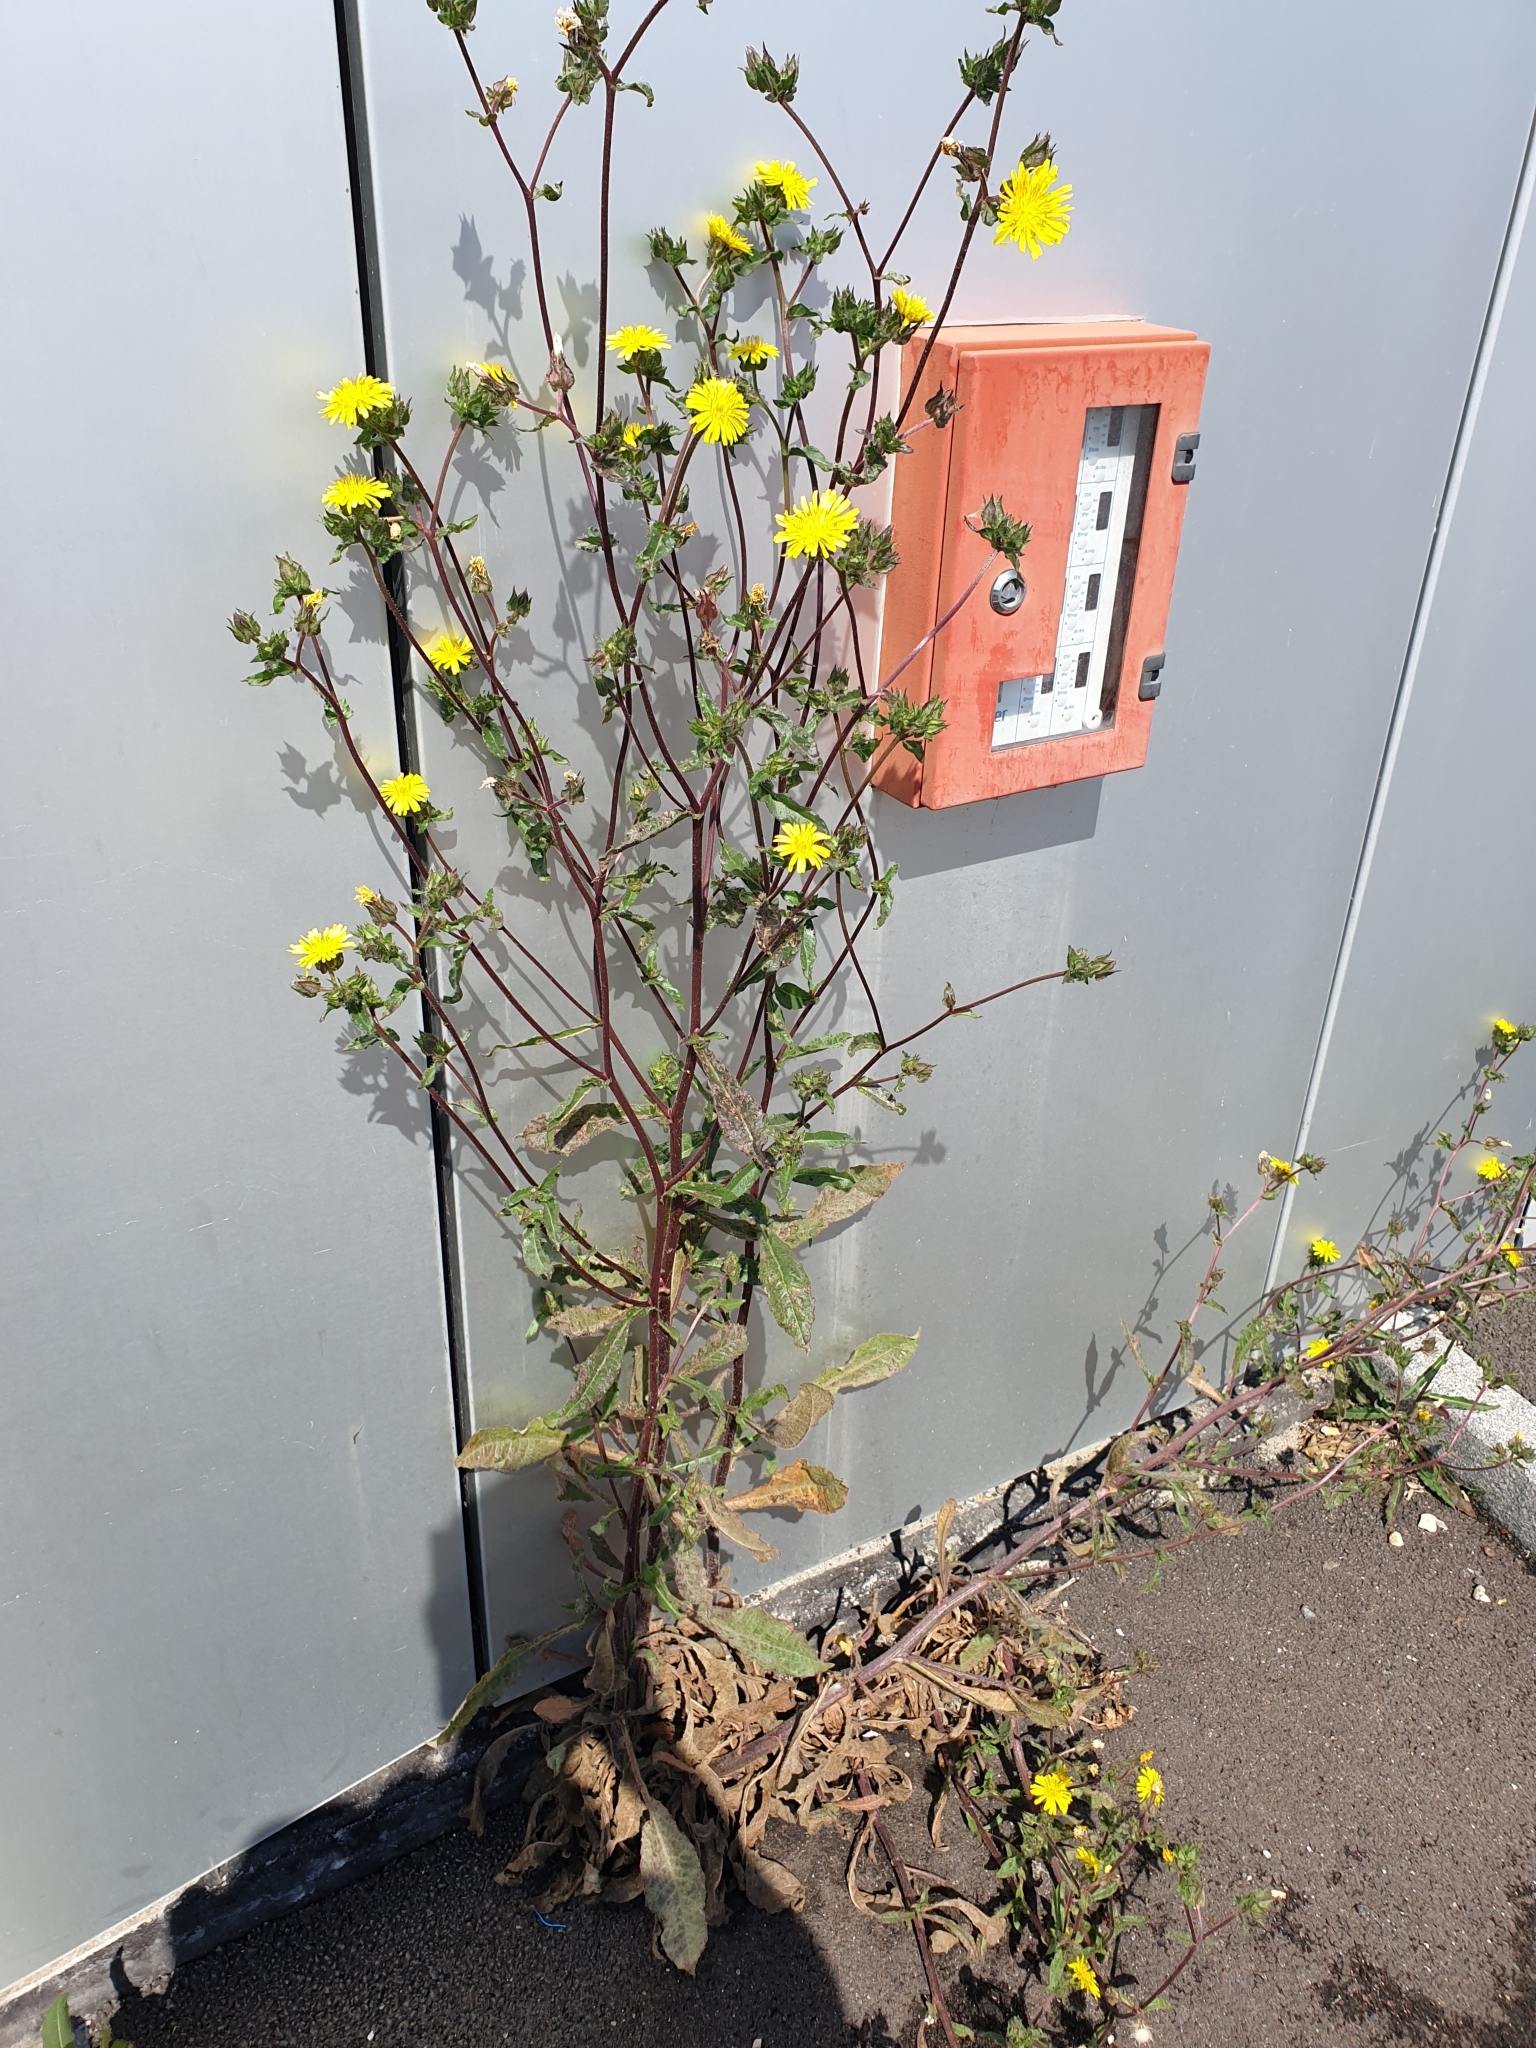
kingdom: Plantae
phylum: Tracheophyta
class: Magnoliopsida
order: Asterales
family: Asteraceae
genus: Helminthotheca
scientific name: Helminthotheca echioides
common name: Ox-tongue
